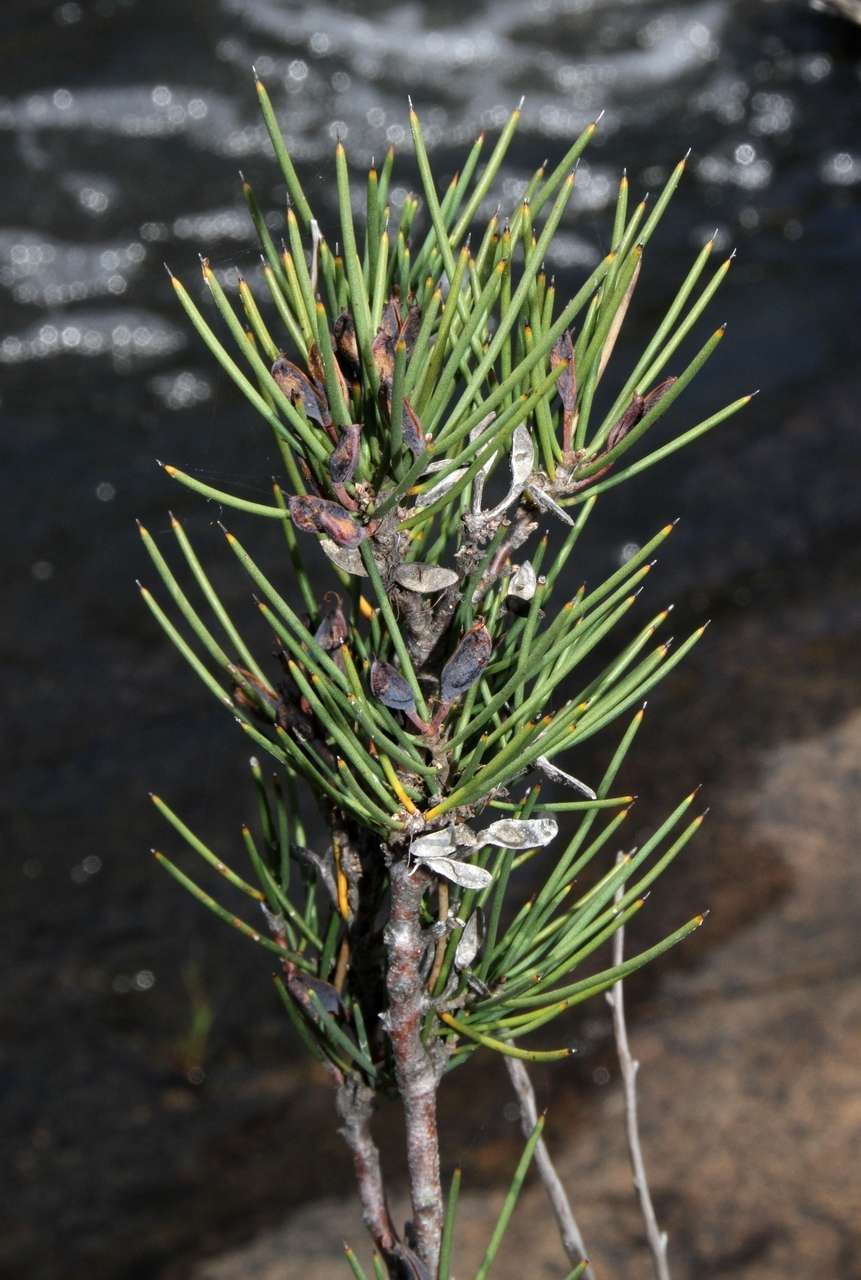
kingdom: Plantae
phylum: Tracheophyta
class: Magnoliopsida
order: Proteales
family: Proteaceae
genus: Hakea
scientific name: Hakea microcarpa
